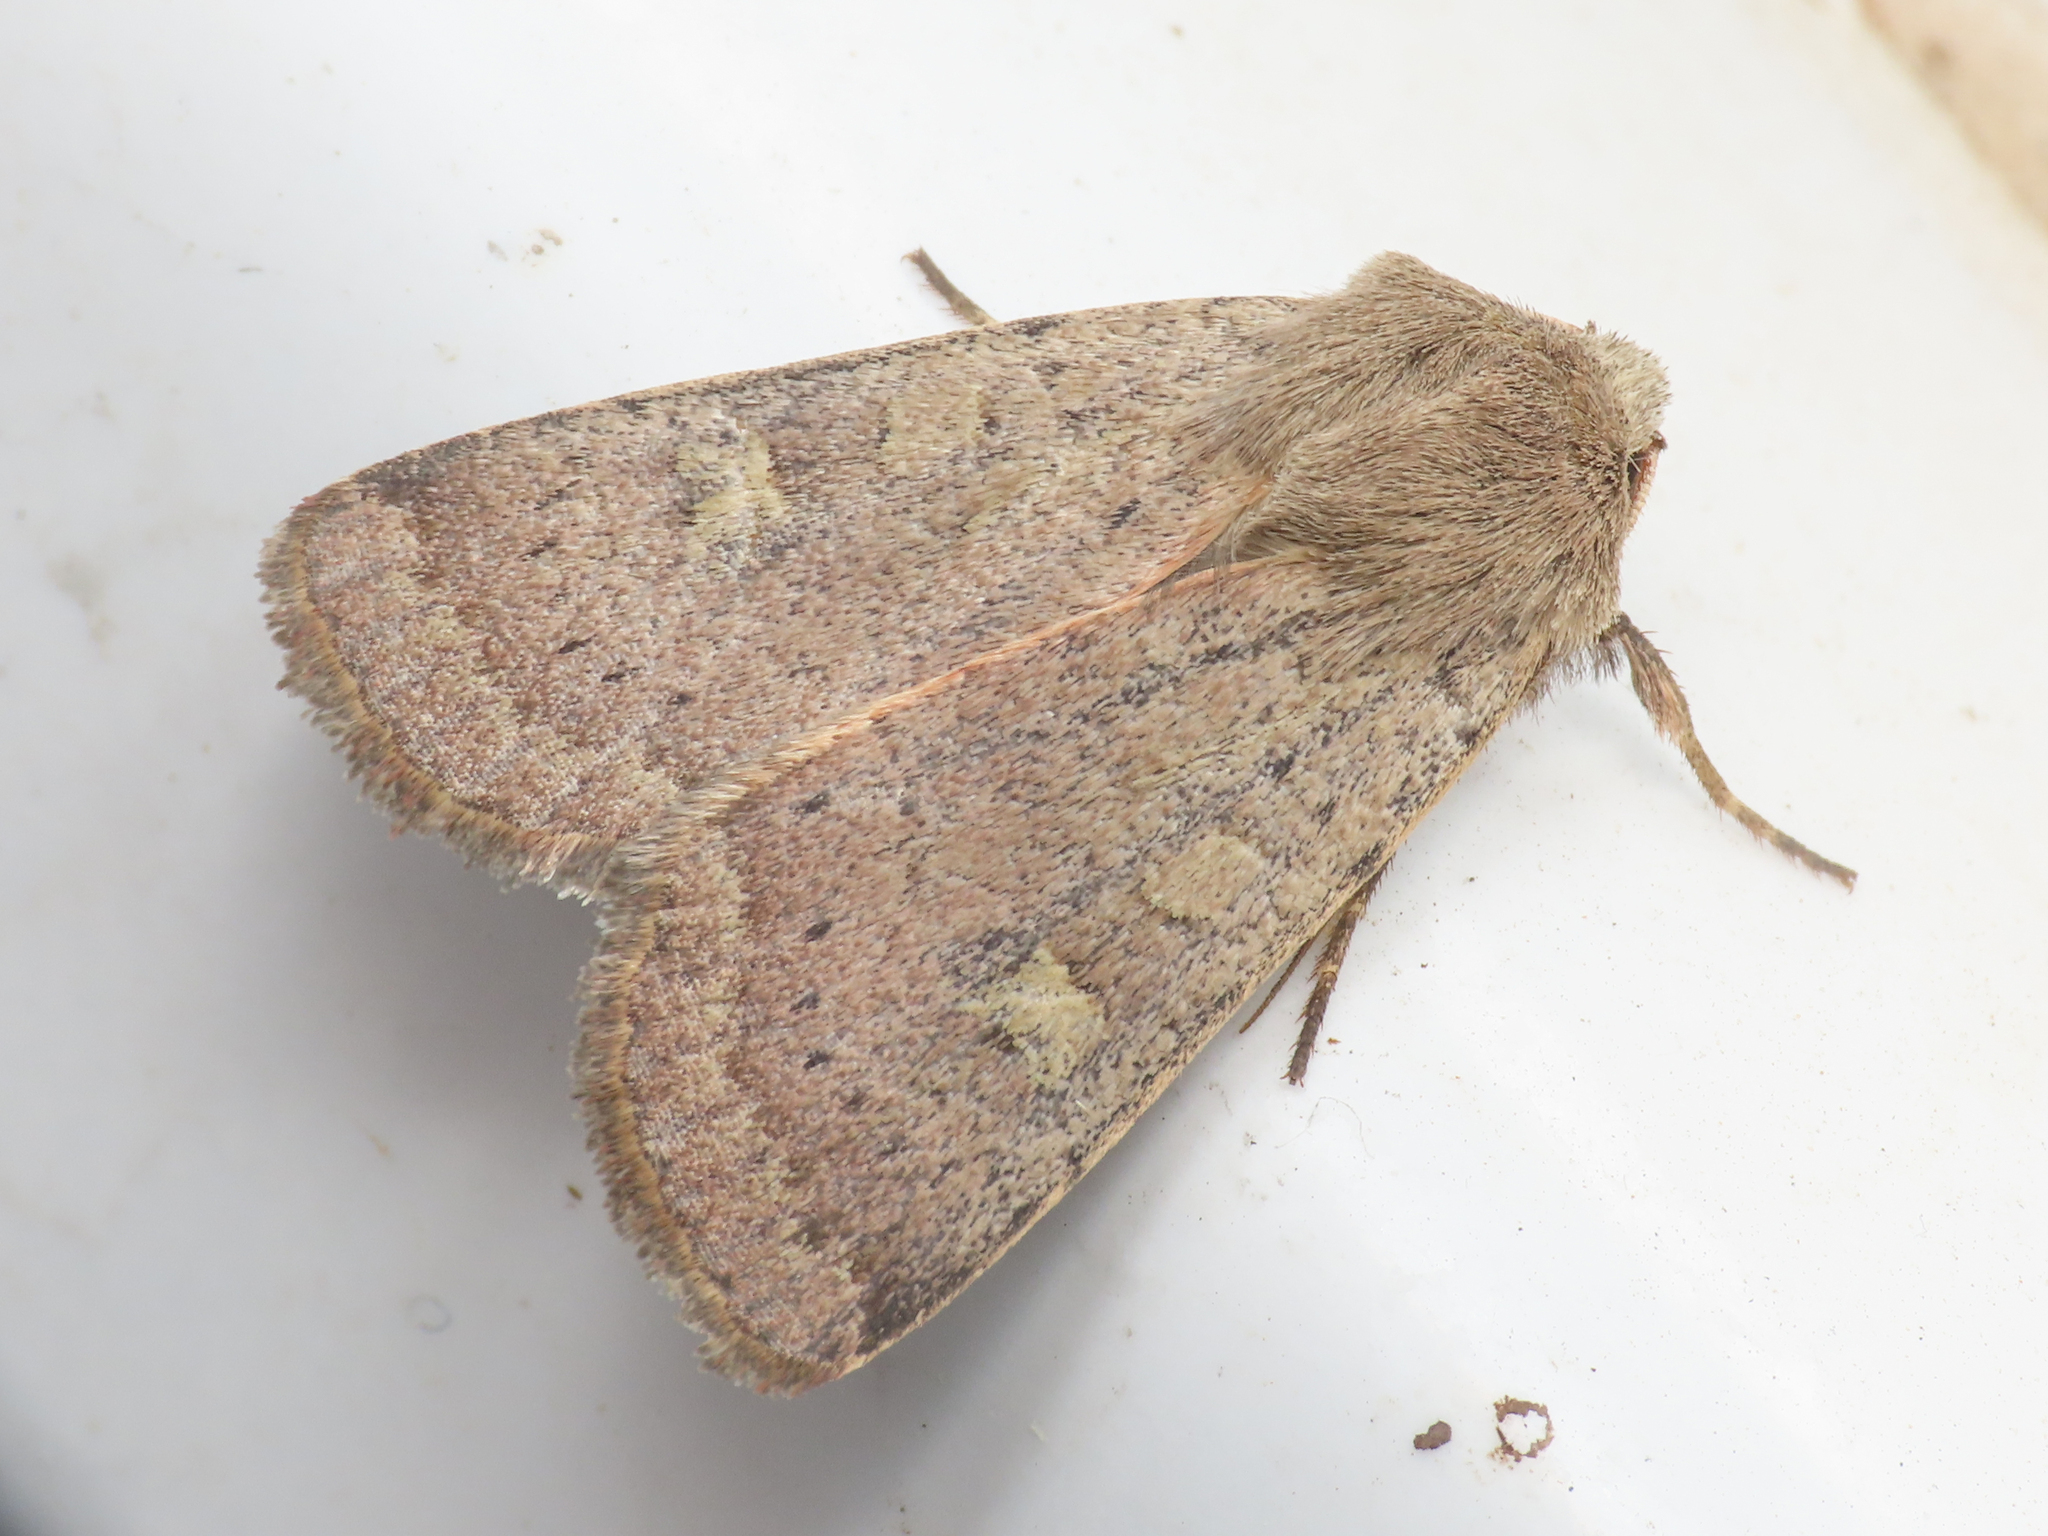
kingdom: Animalia
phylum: Arthropoda
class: Insecta
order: Lepidoptera
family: Noctuidae
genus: Xestia
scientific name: Xestia xanthographa
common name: Square-spot rustic
